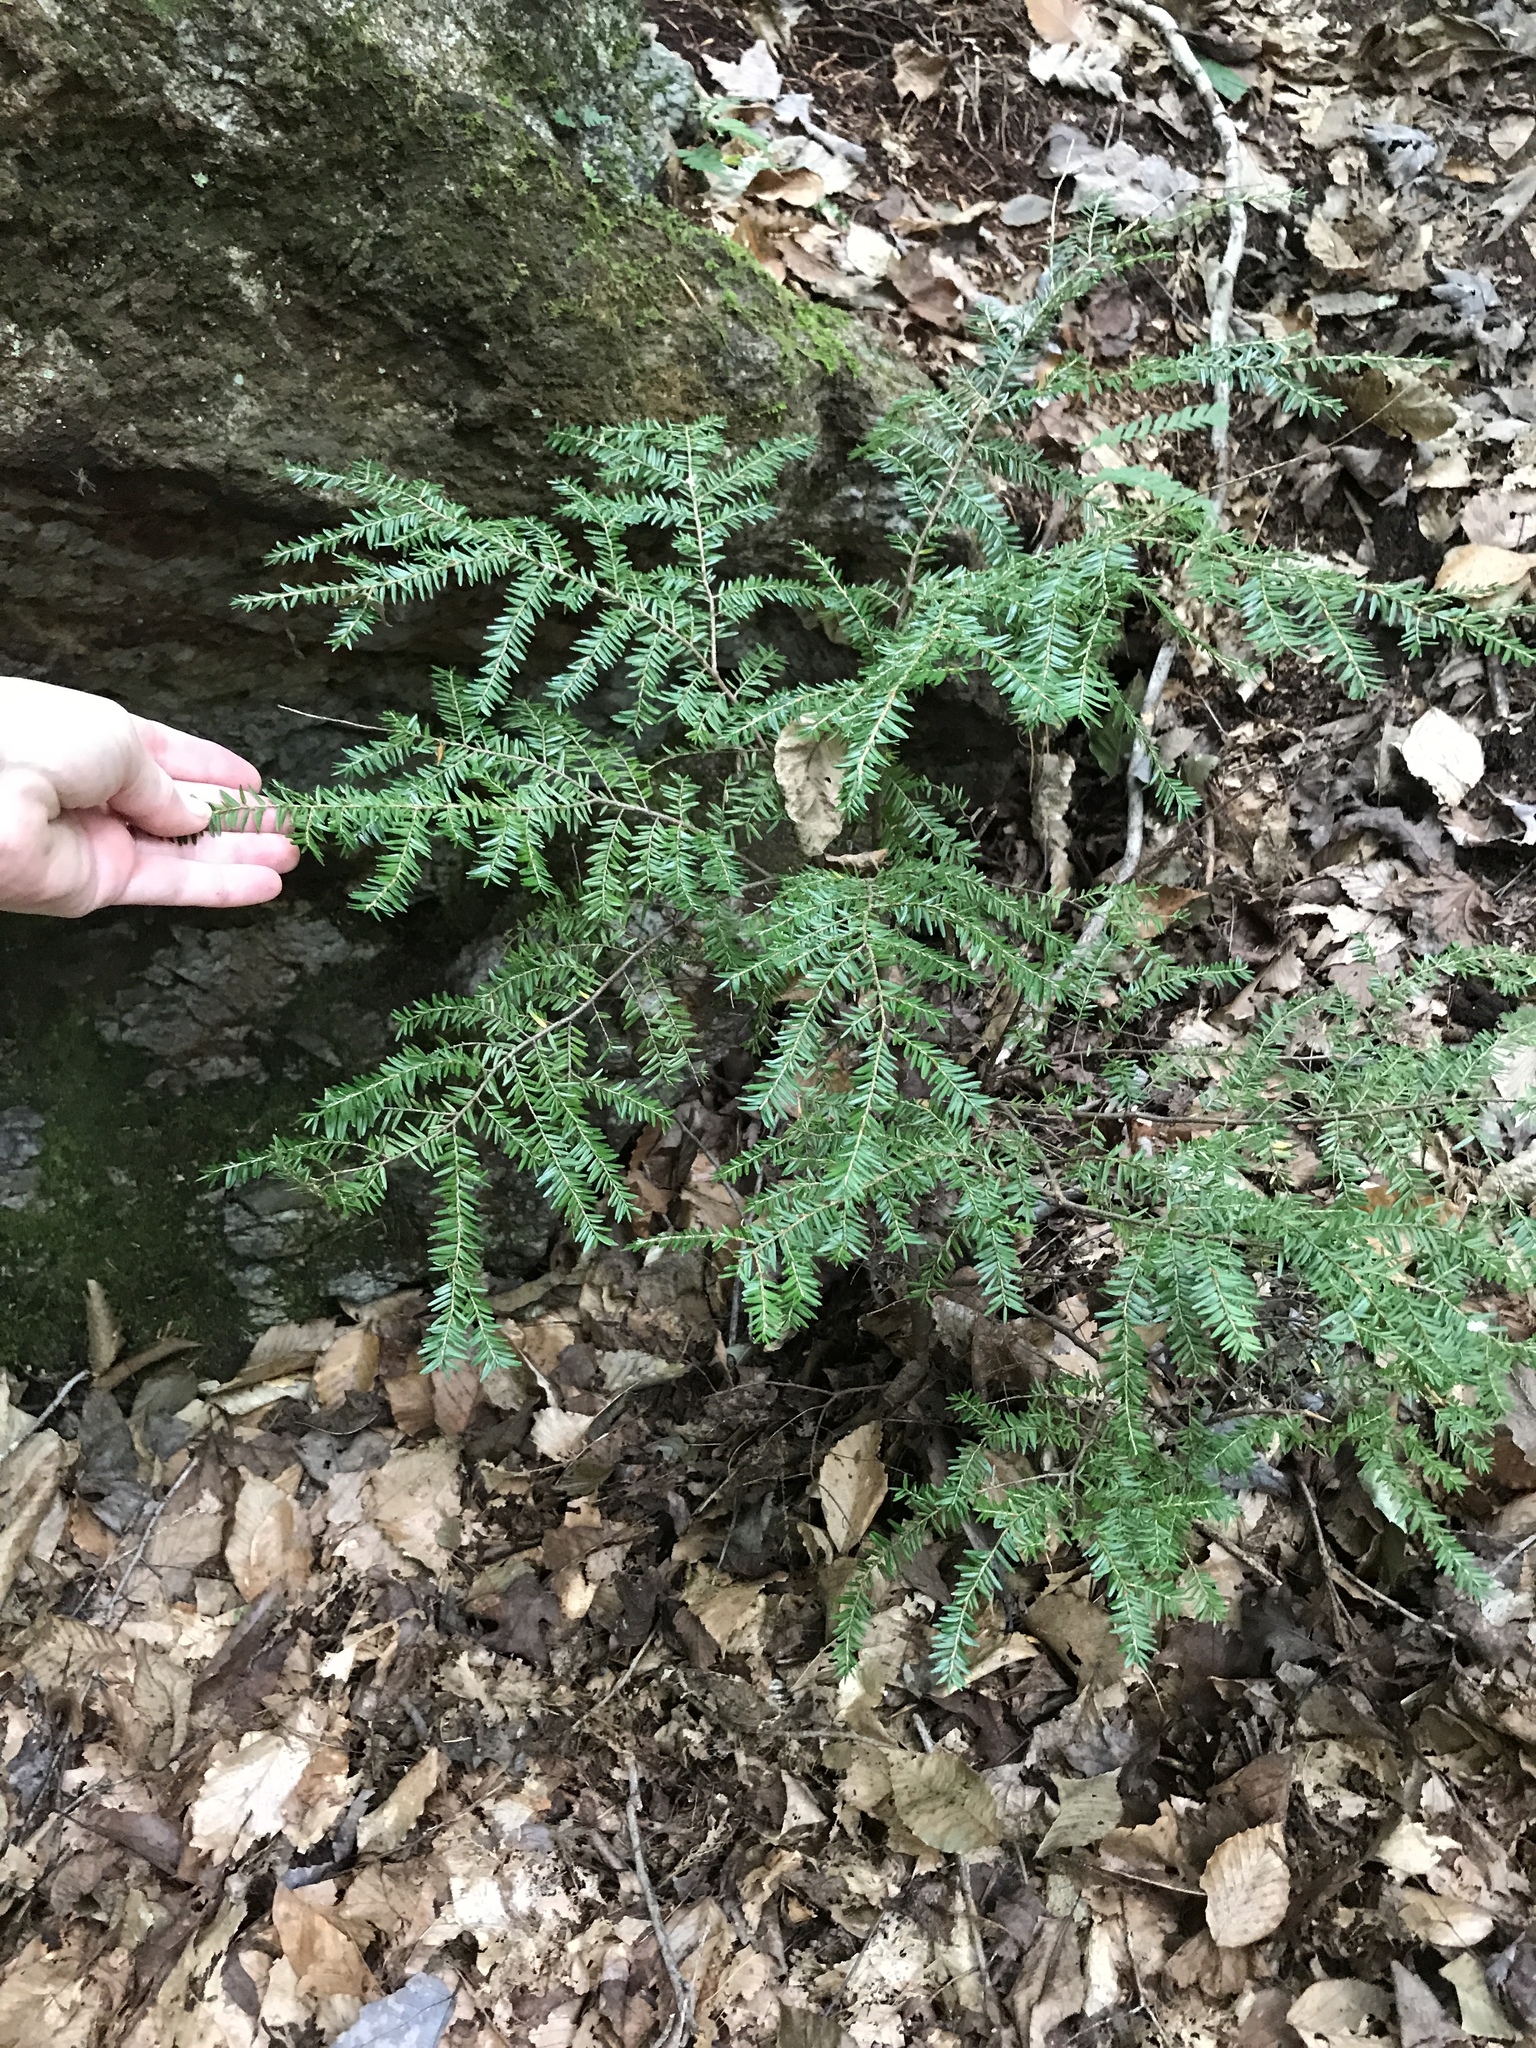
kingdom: Plantae
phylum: Tracheophyta
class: Pinopsida
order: Pinales
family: Pinaceae
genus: Tsuga
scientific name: Tsuga canadensis
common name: Eastern hemlock
